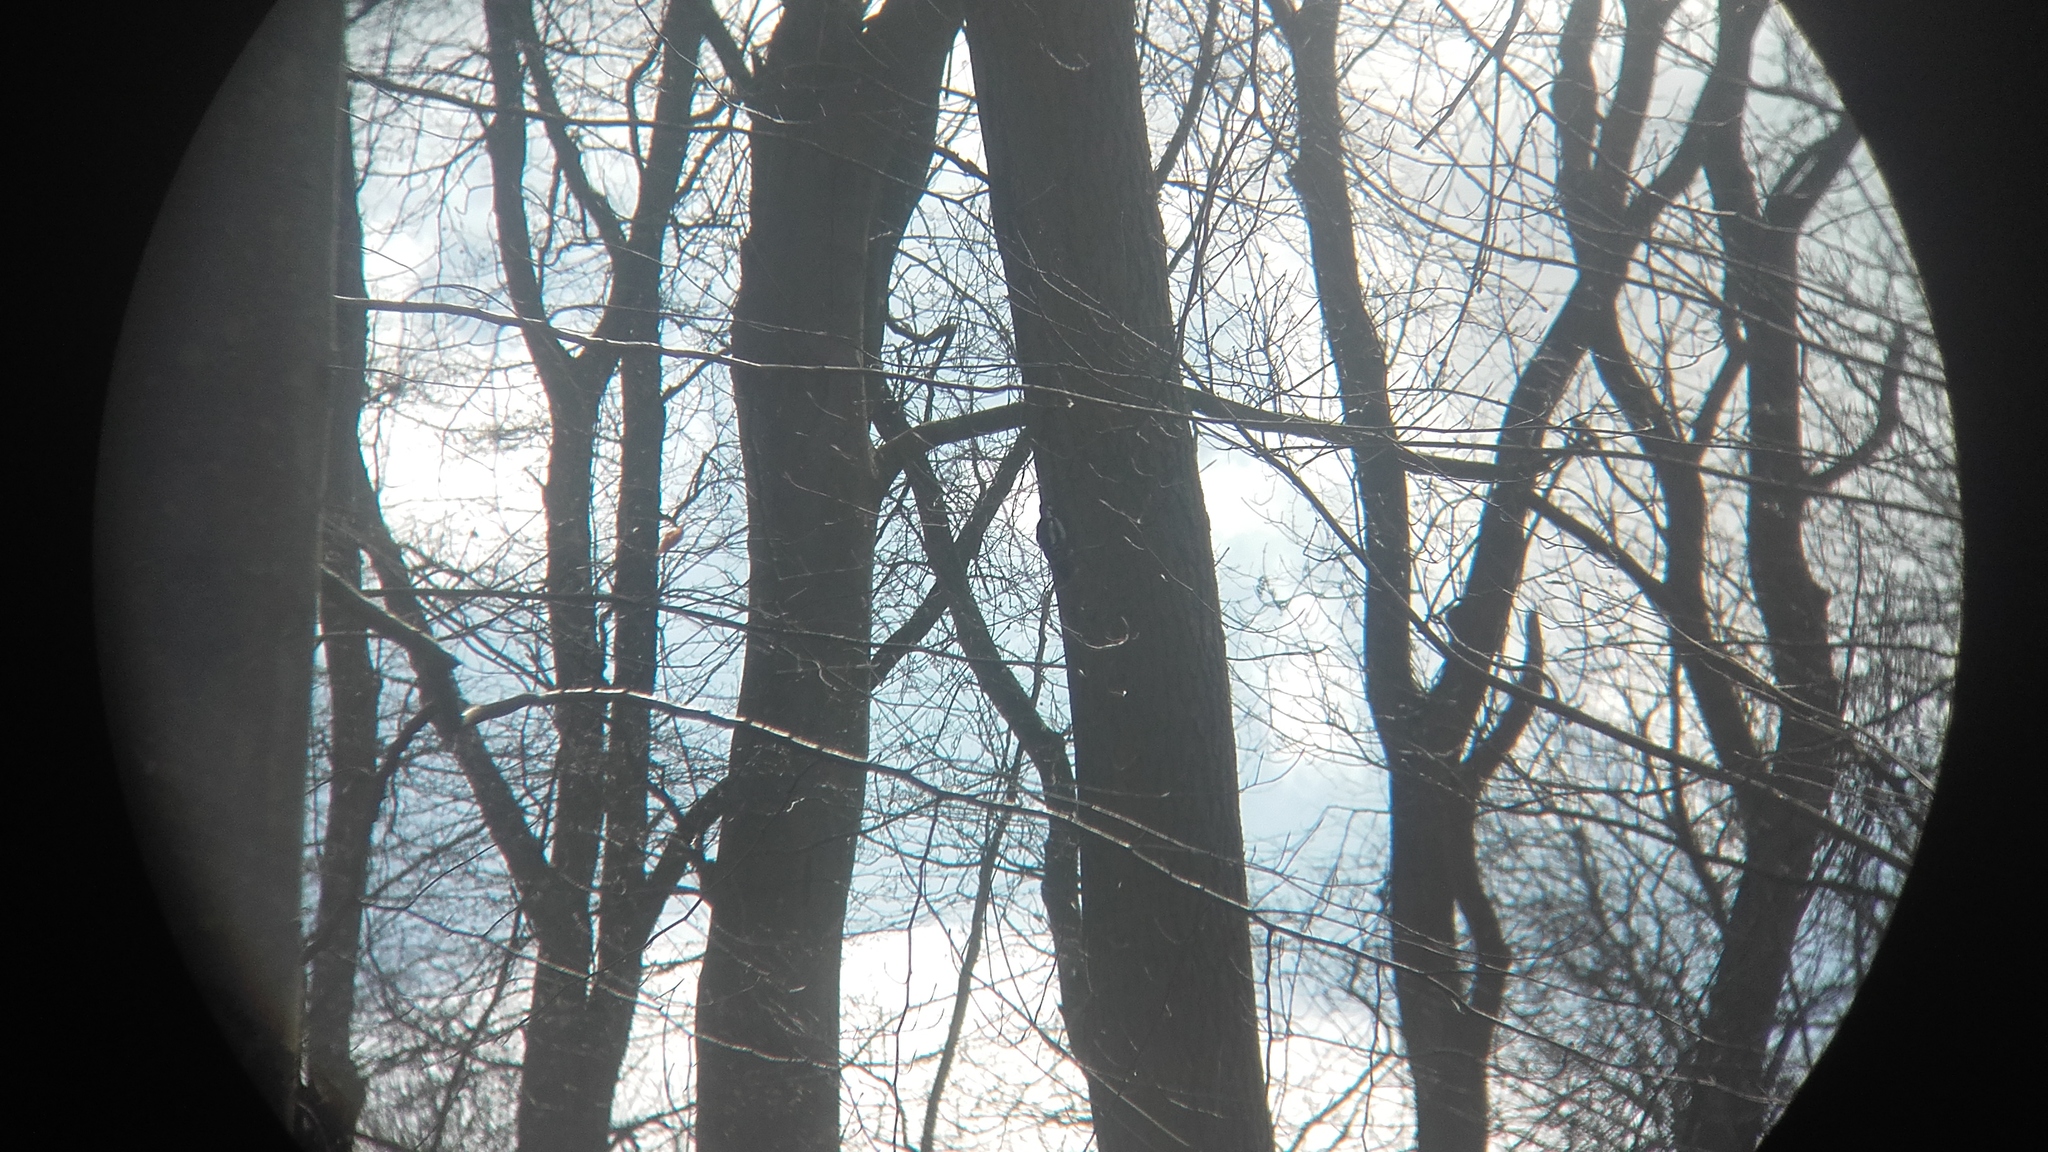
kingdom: Animalia
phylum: Chordata
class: Aves
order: Piciformes
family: Picidae
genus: Dendrocopos
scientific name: Dendrocopos major
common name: Great spotted woodpecker
